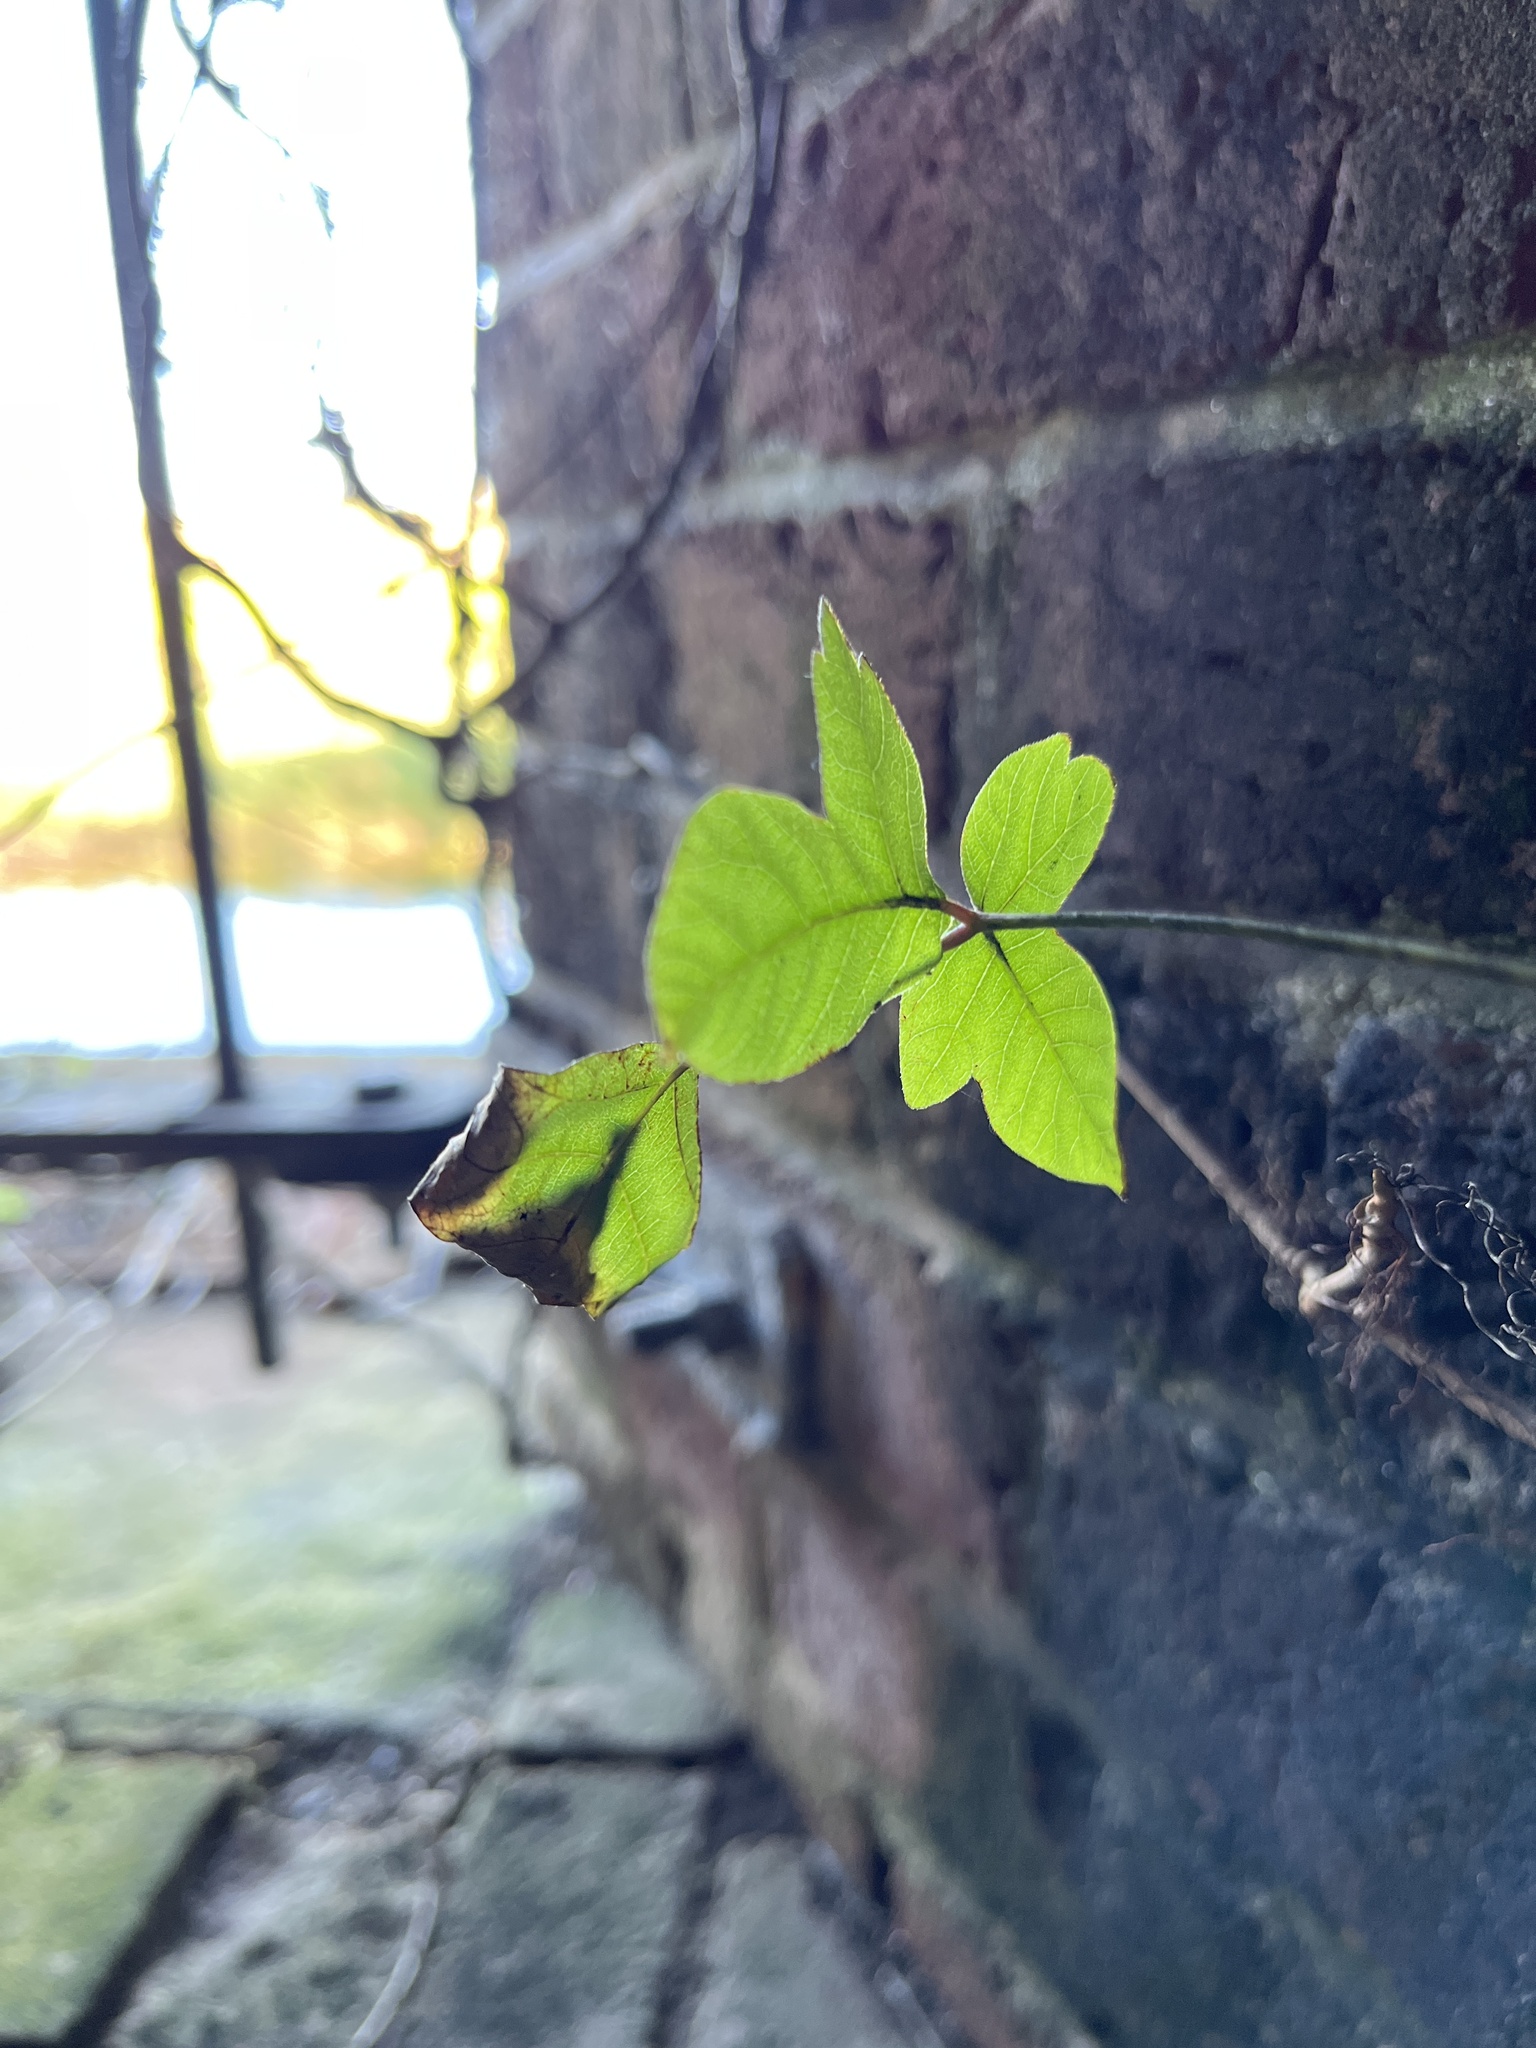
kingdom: Plantae
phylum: Tracheophyta
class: Magnoliopsida
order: Sapindales
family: Anacardiaceae
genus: Toxicodendron
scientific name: Toxicodendron radicans
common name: Poison ivy
